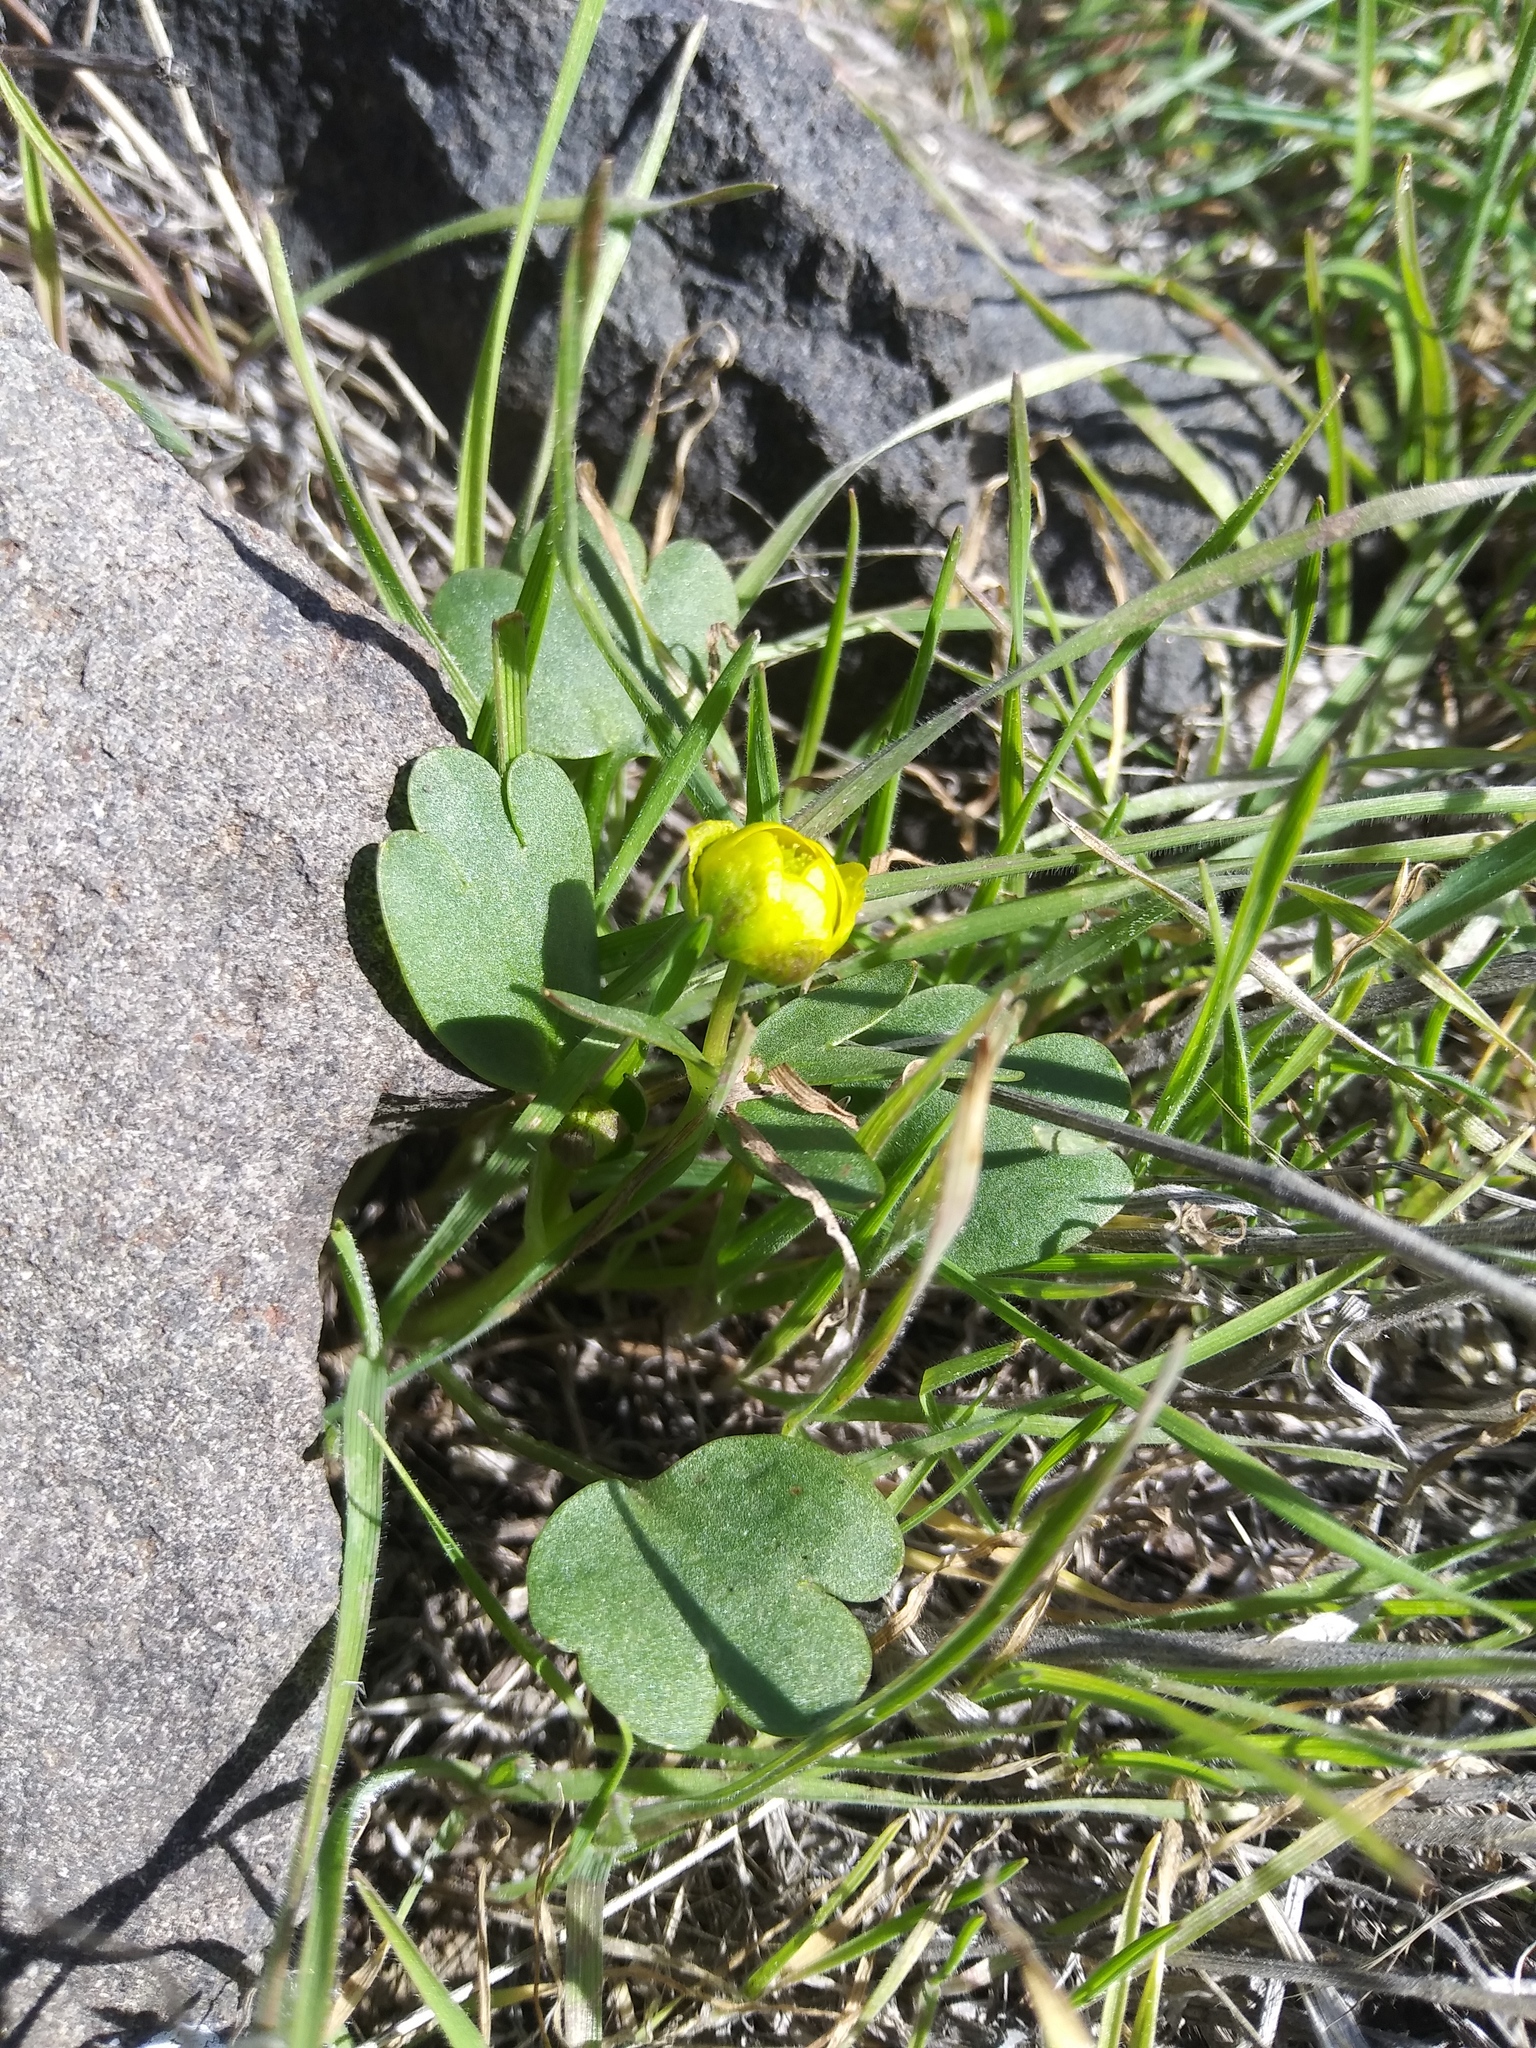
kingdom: Plantae
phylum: Tracheophyta
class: Magnoliopsida
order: Ranunculales
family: Ranunculaceae
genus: Ranunculus
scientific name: Ranunculus glaberrimus
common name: Sagebrush buttercup
